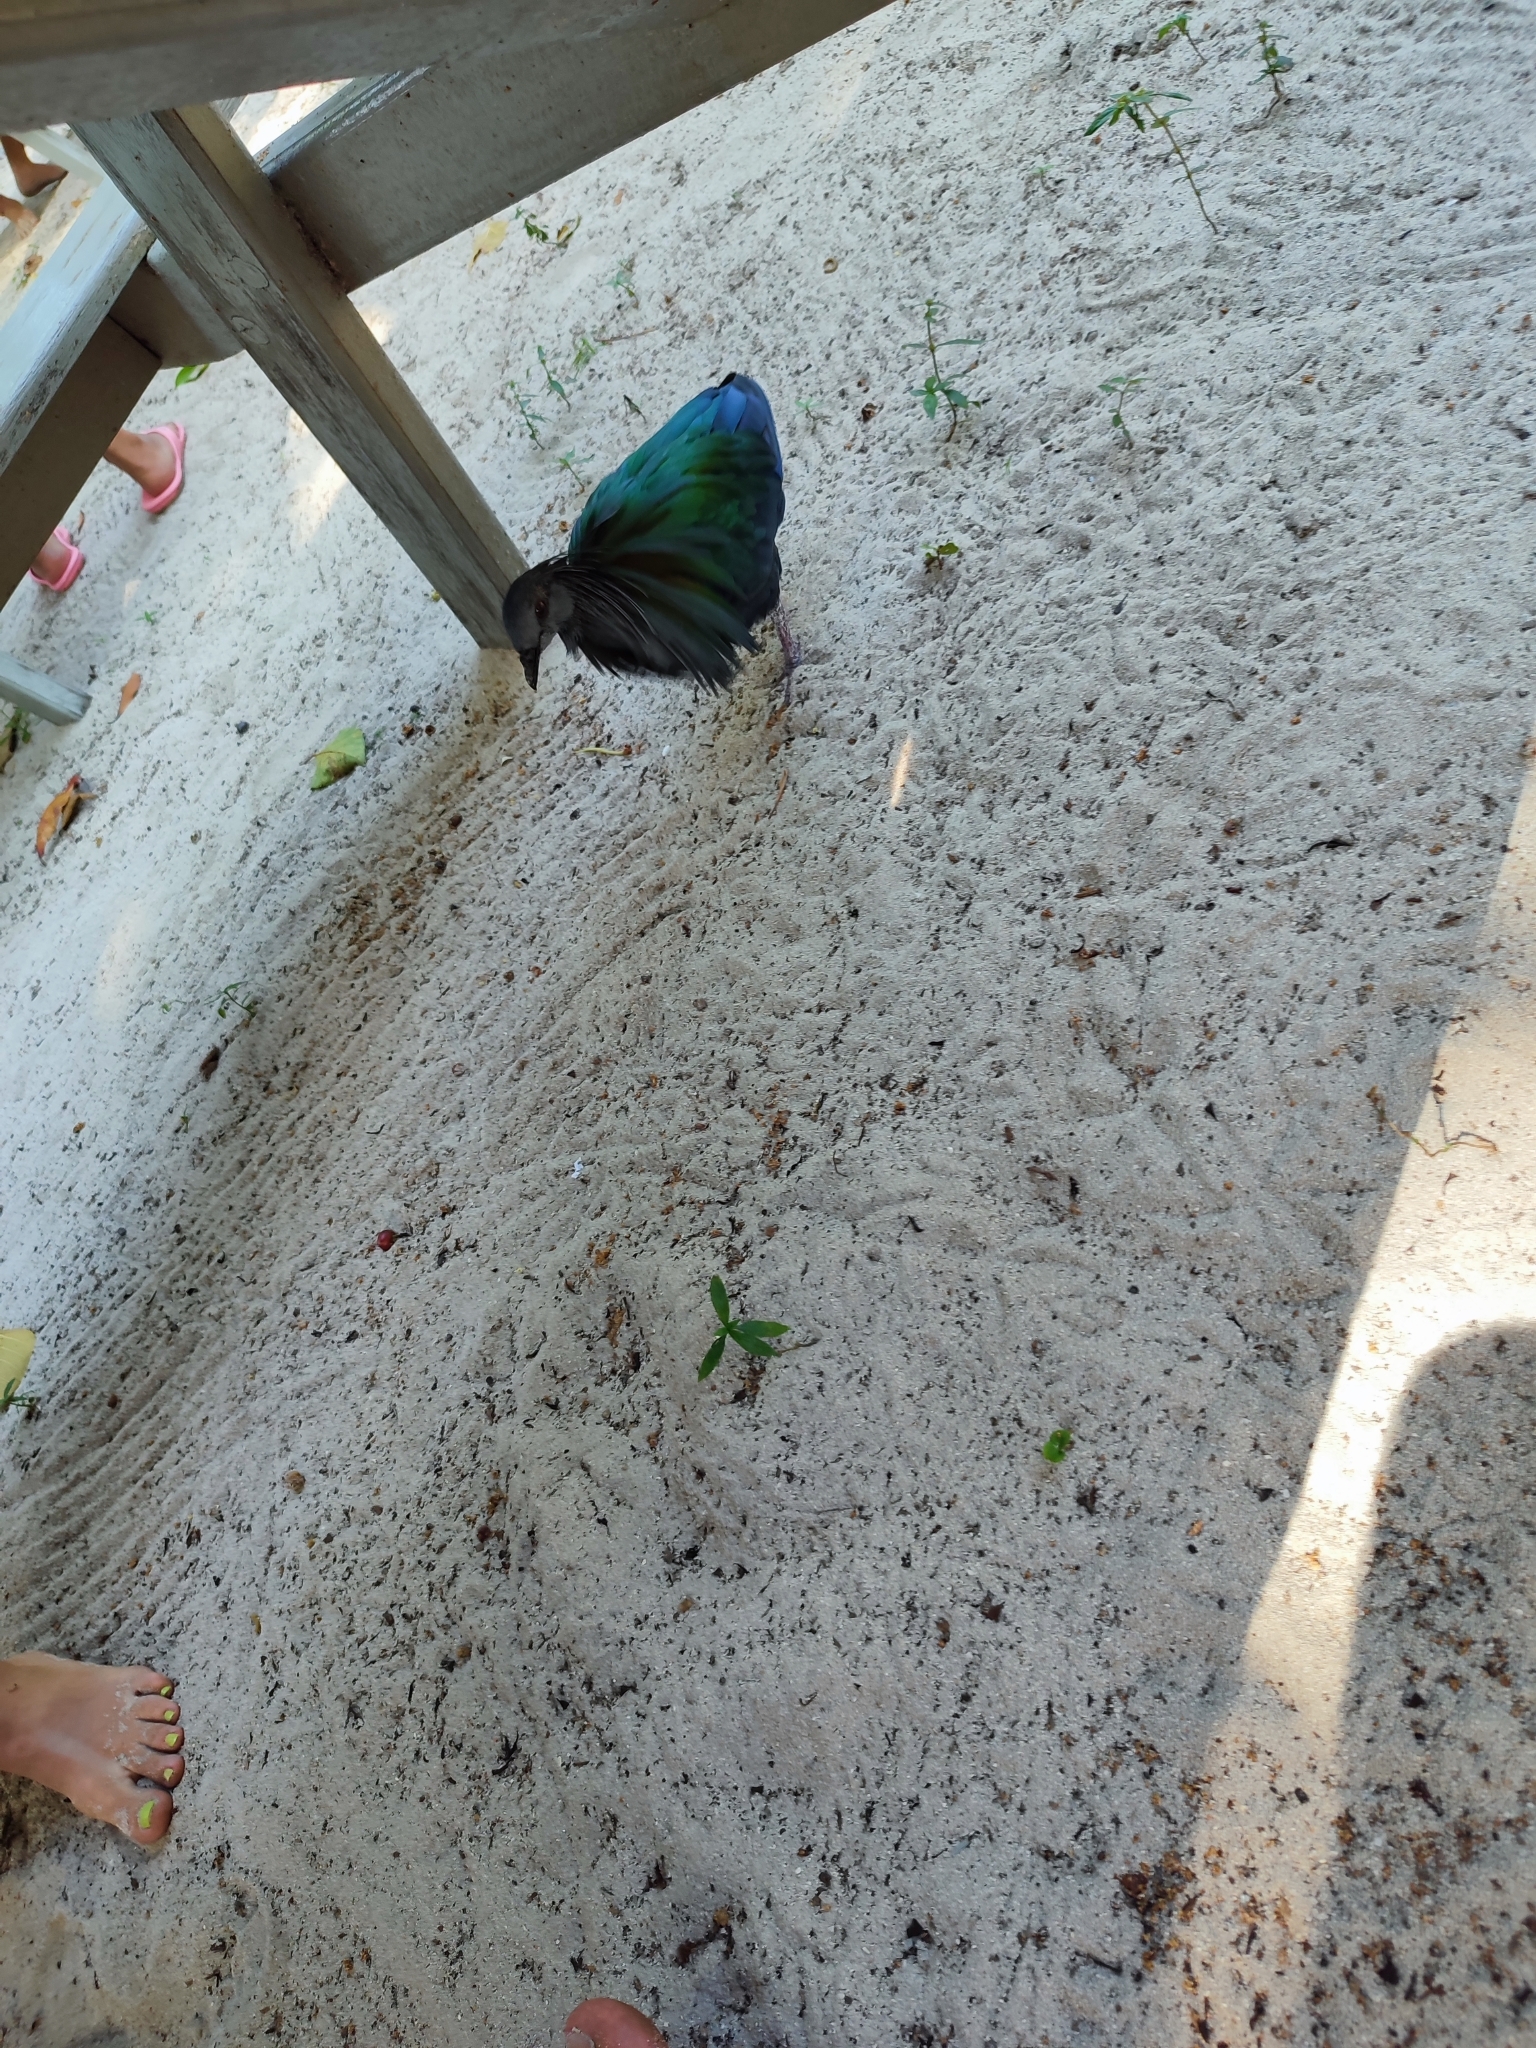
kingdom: Animalia
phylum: Chordata
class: Aves
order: Columbiformes
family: Columbidae
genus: Caloenas
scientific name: Caloenas nicobarica
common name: Nicobar pigeon
